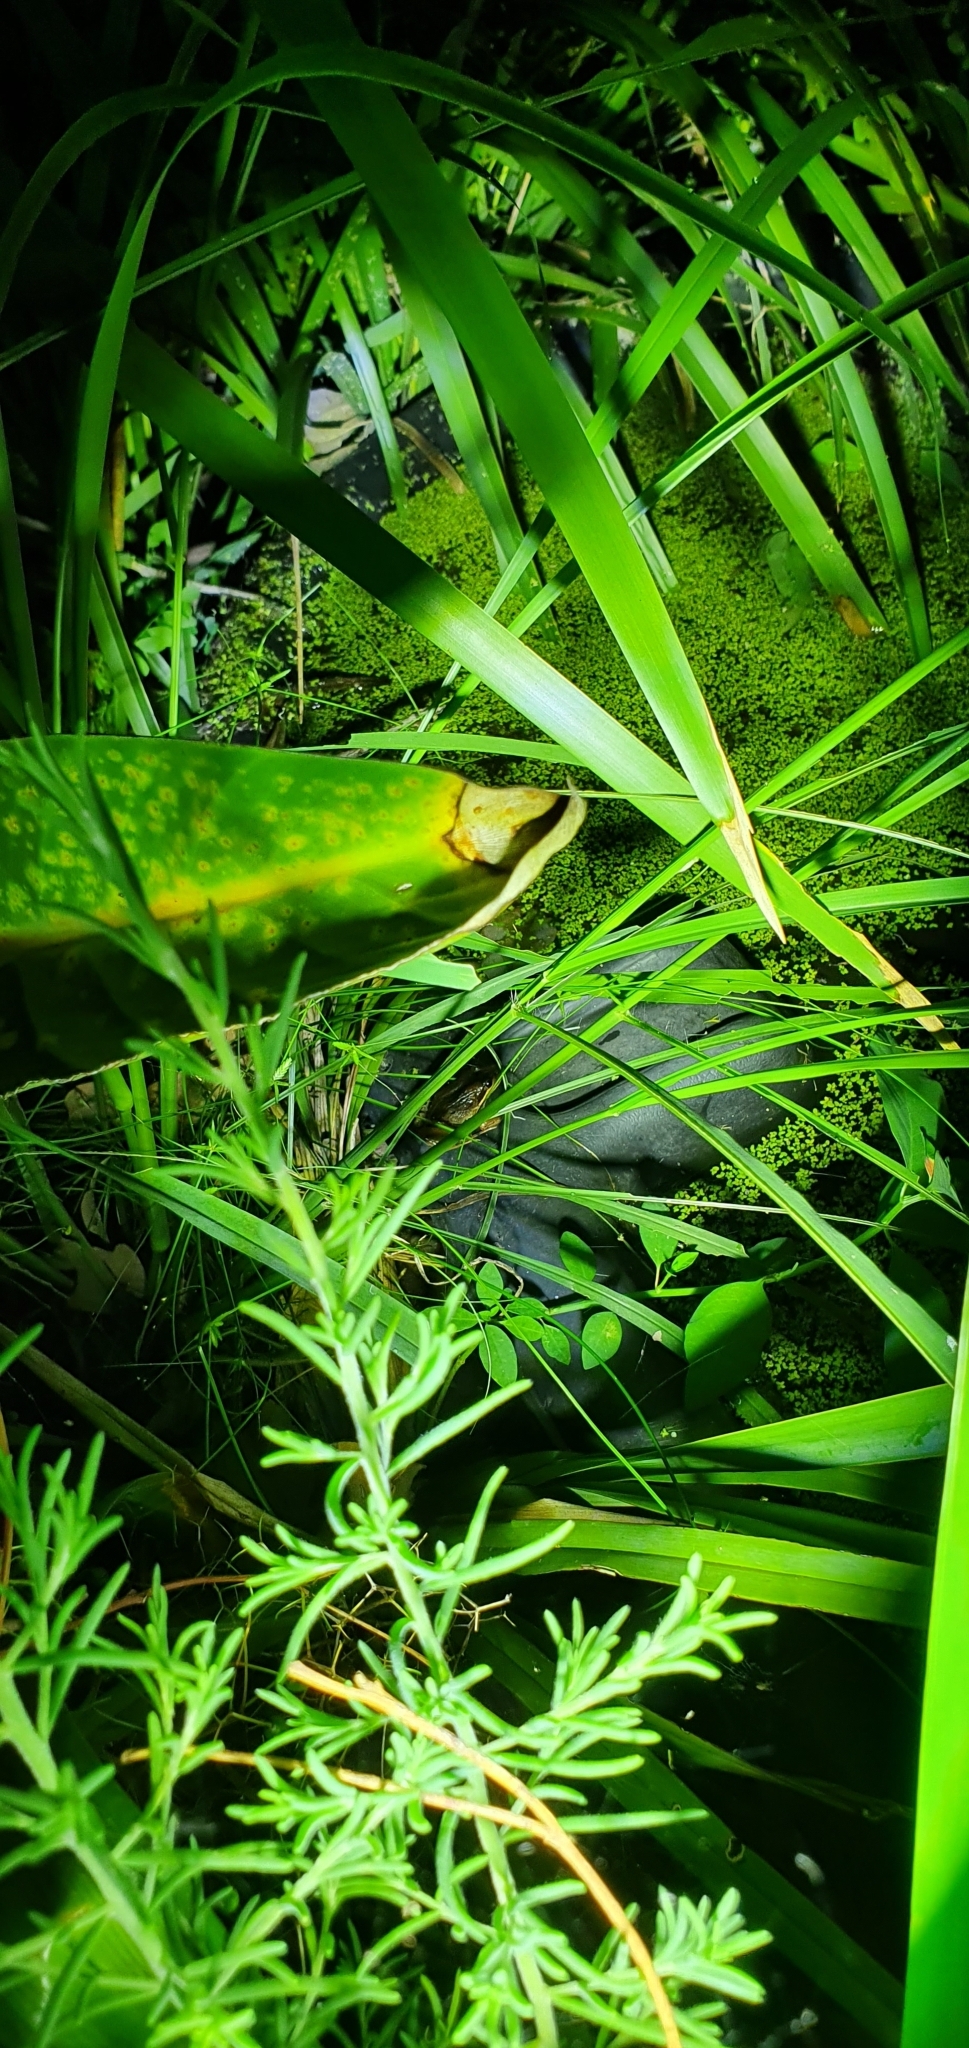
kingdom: Animalia
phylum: Chordata
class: Amphibia
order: Anura
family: Limnodynastidae
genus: Limnodynastes
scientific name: Limnodynastes peronii
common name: Brown frog
